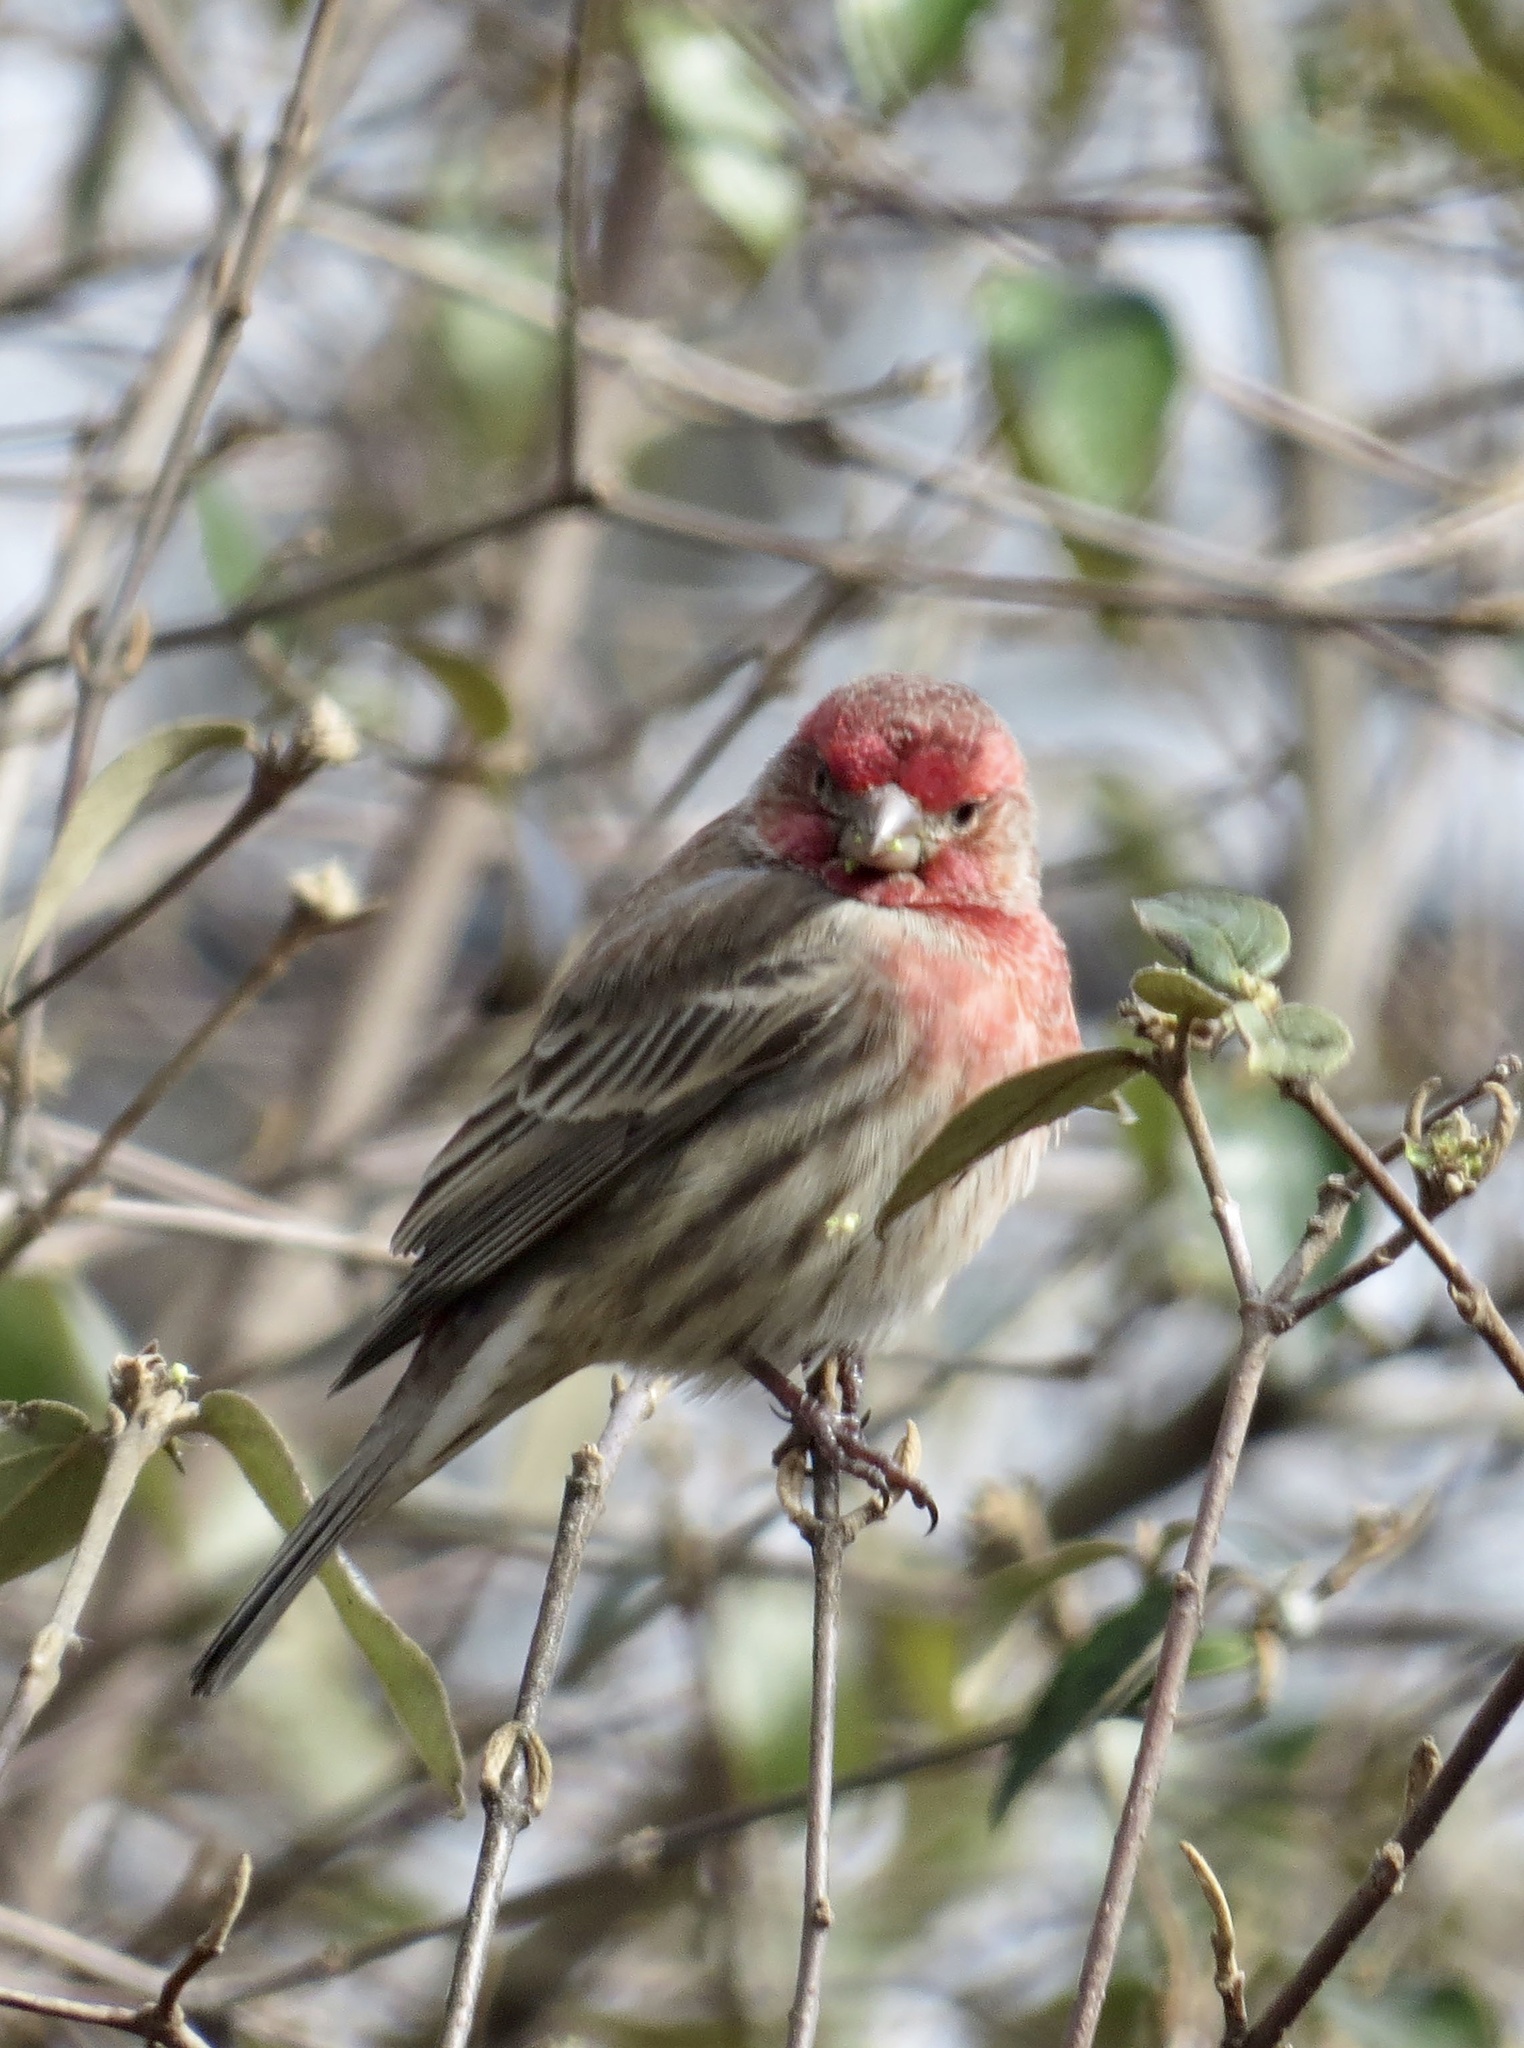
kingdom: Animalia
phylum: Chordata
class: Aves
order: Passeriformes
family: Fringillidae
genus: Haemorhous
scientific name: Haemorhous mexicanus
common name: House finch
